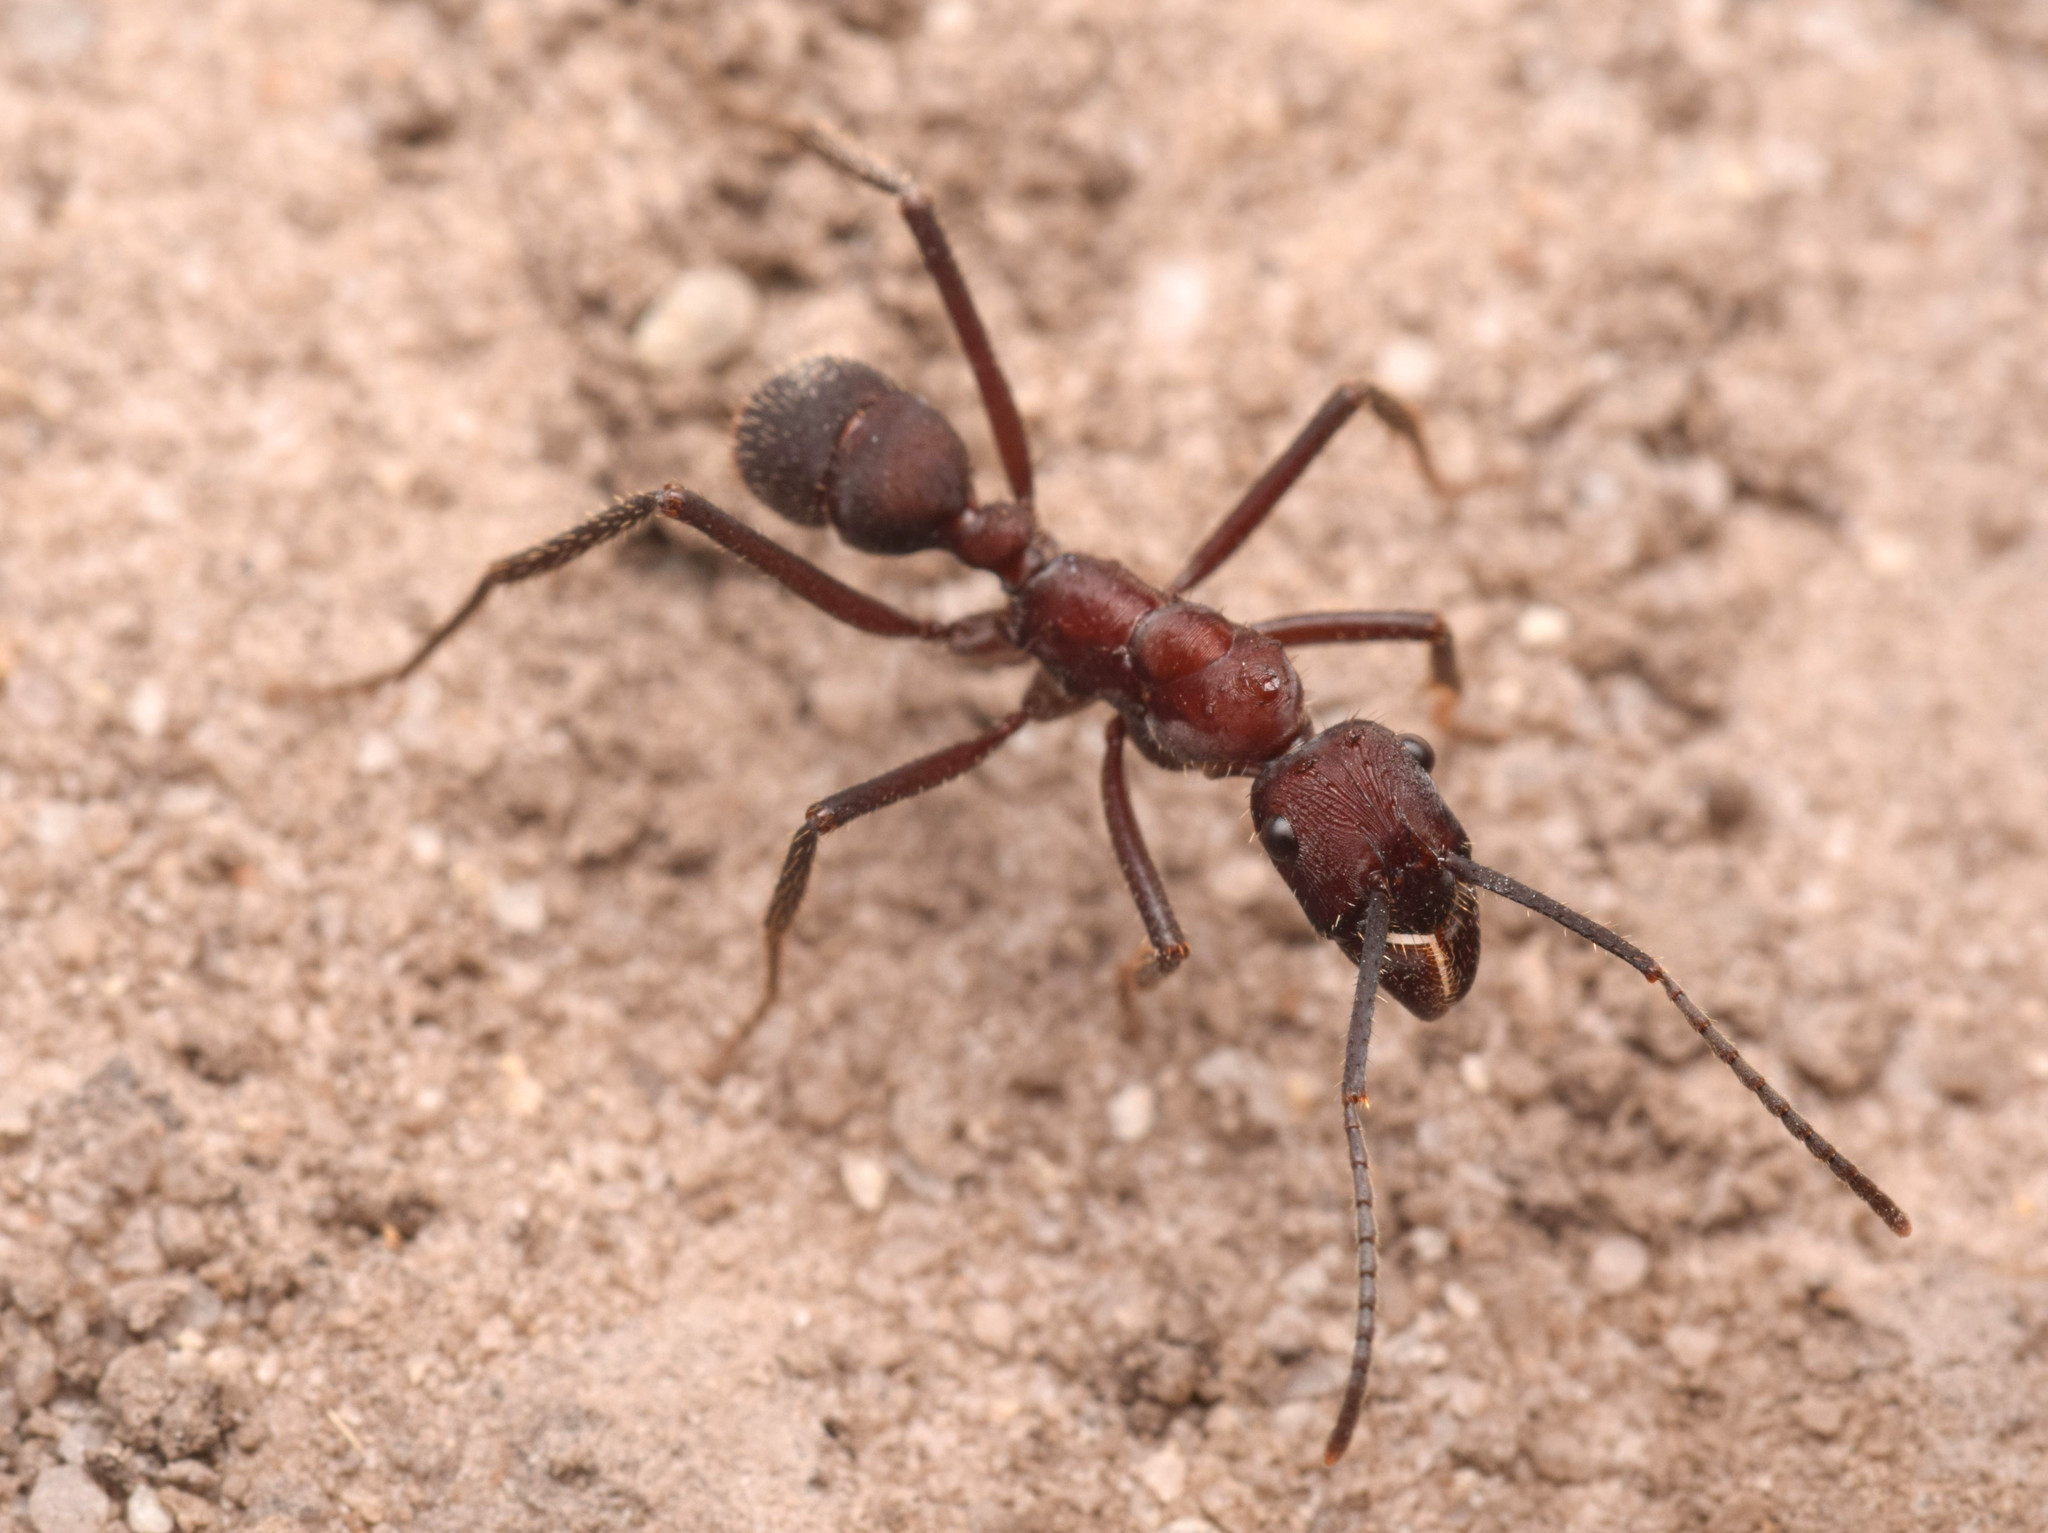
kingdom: Animalia
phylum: Arthropoda
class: Insecta
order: Hymenoptera
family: Formicidae
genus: Ectatomma
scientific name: Ectatomma opaciventre
